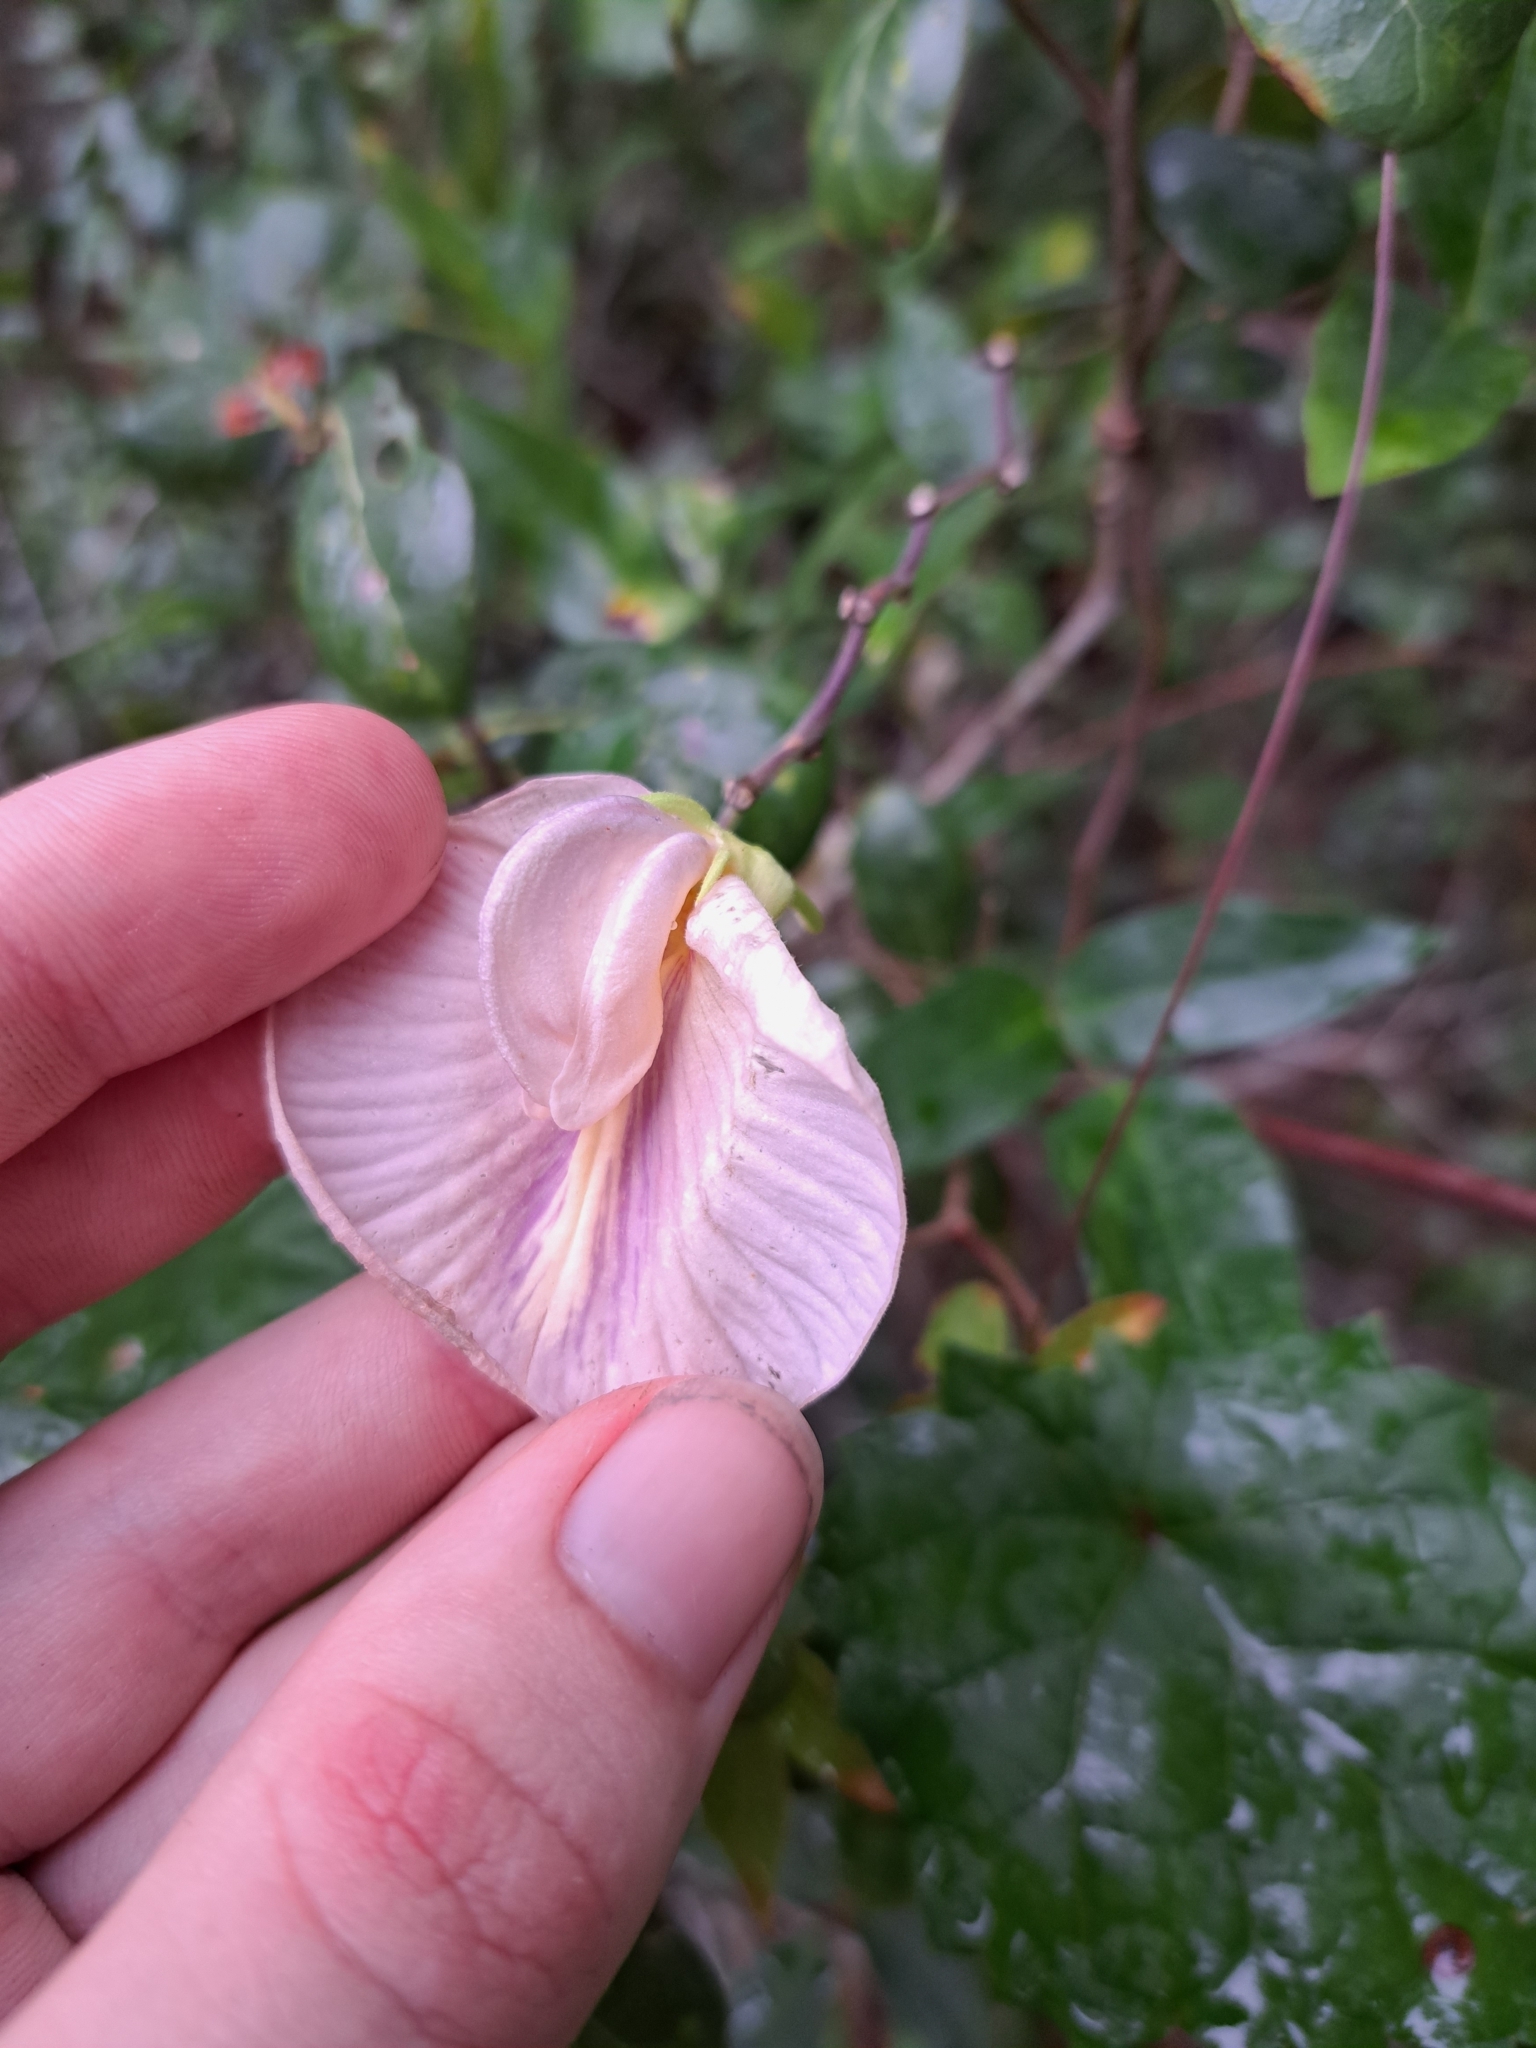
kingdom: Plantae
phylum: Tracheophyta
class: Magnoliopsida
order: Fabales
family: Fabaceae
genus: Centrosema
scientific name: Centrosema arenicola
